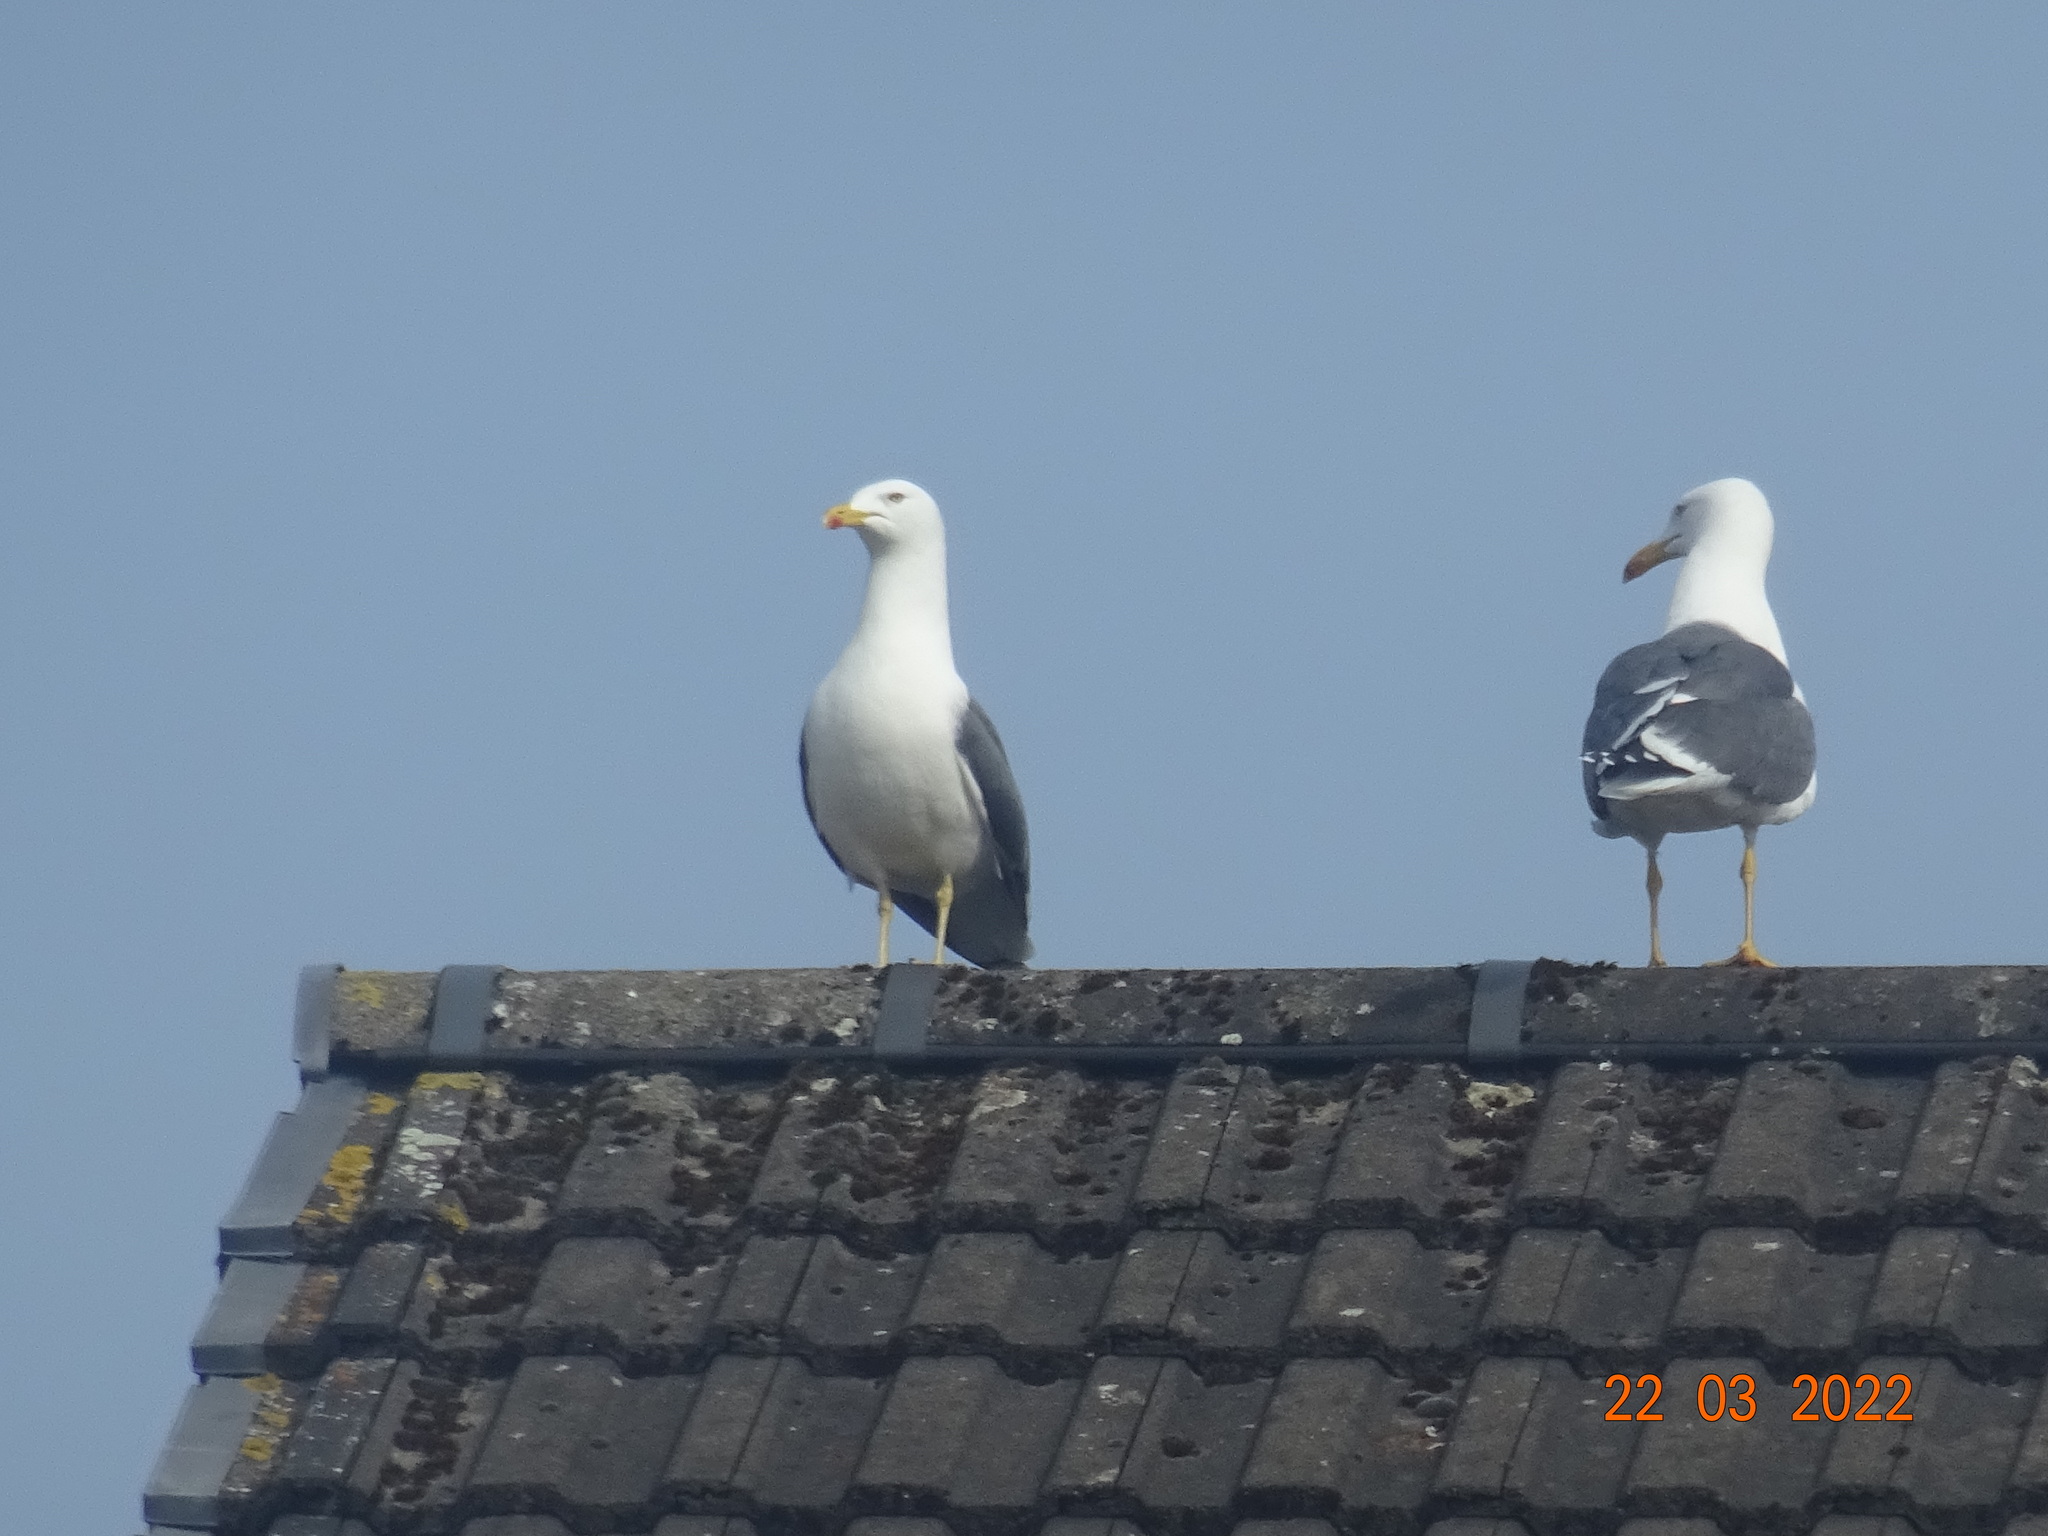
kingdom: Animalia
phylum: Chordata
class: Aves
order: Charadriiformes
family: Laridae
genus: Larus
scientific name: Larus fuscus
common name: Lesser black-backed gull
